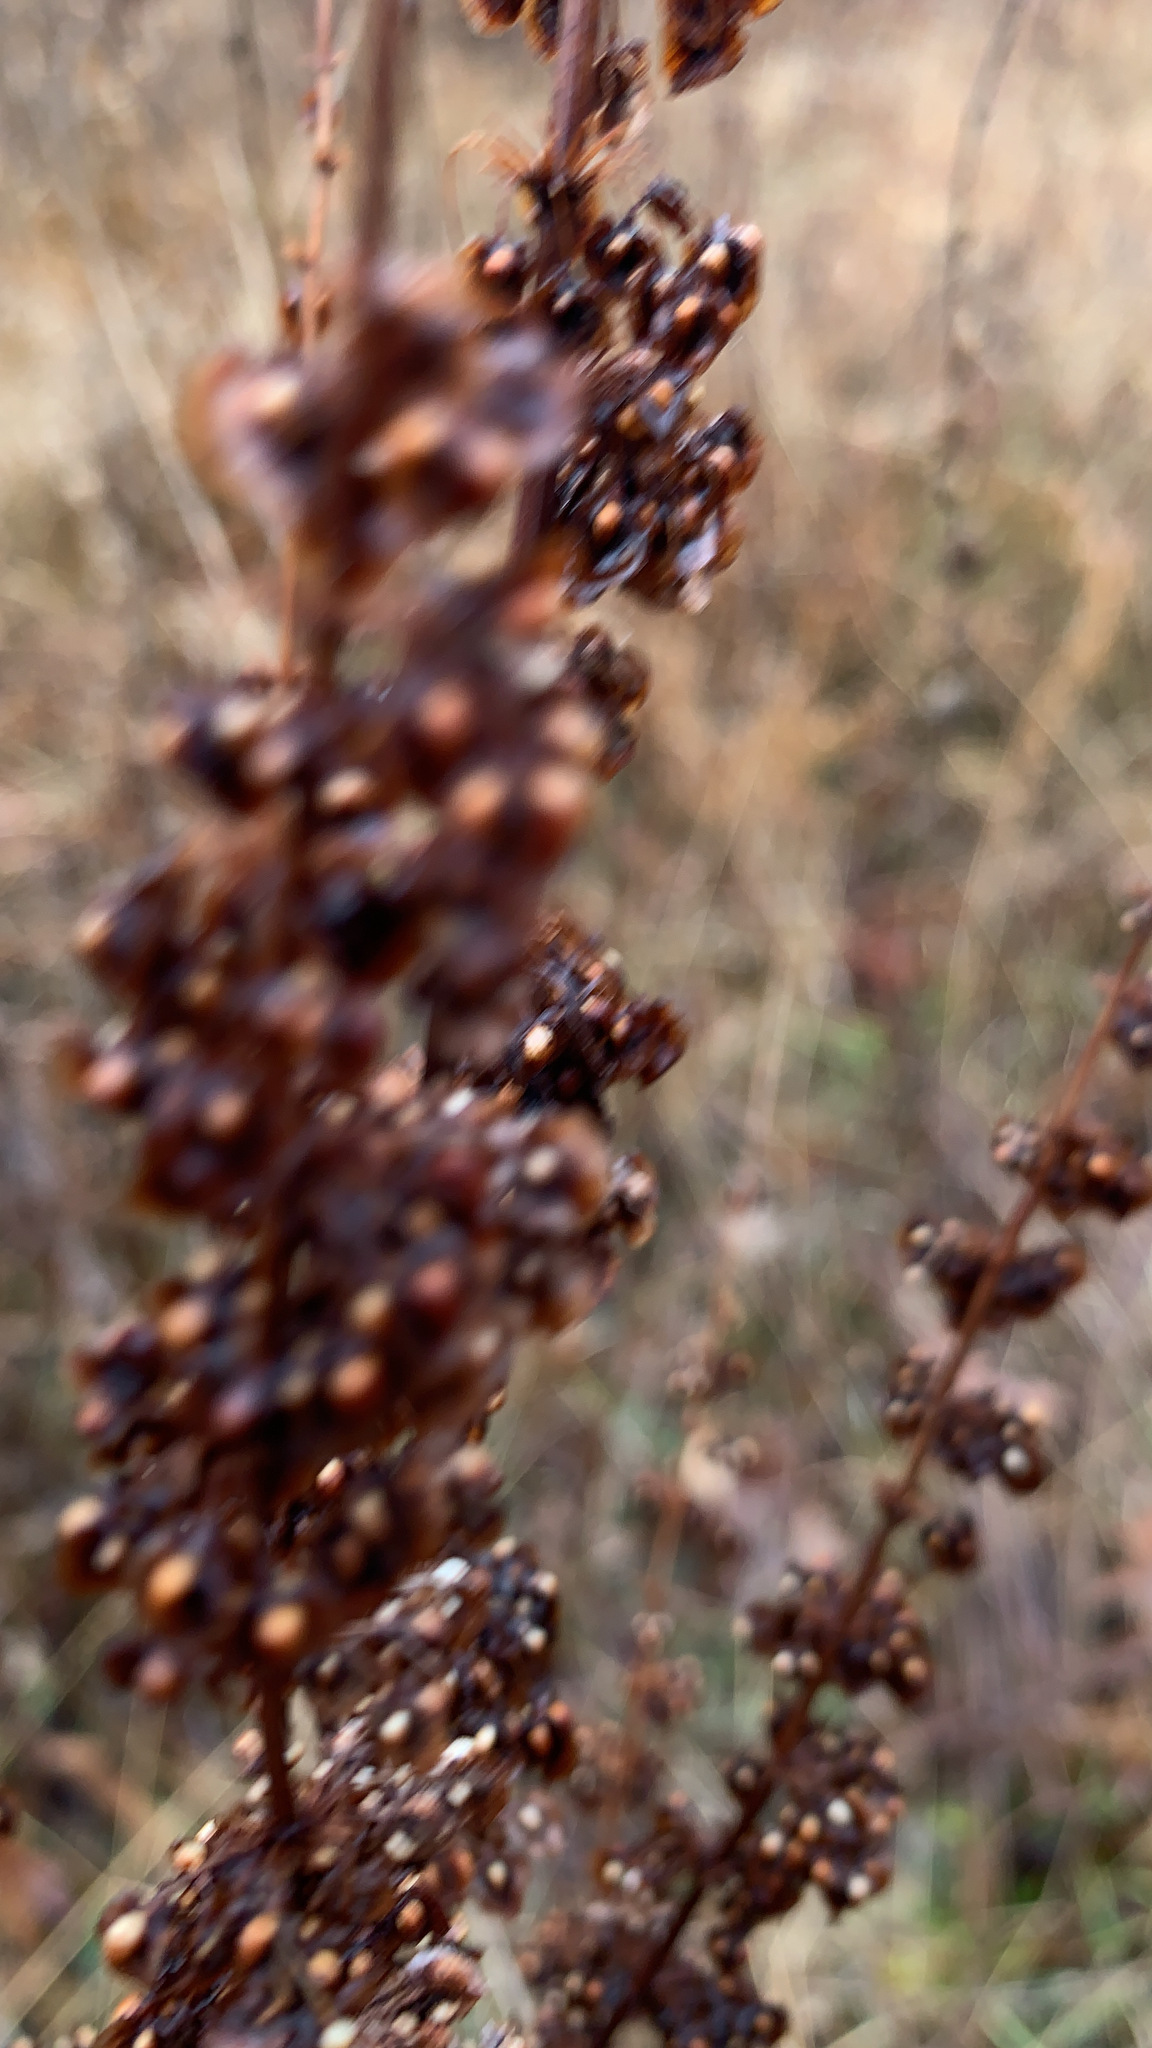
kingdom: Plantae
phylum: Tracheophyta
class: Magnoliopsida
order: Caryophyllales
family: Polygonaceae
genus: Rumex
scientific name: Rumex crispus
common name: Curled dock
